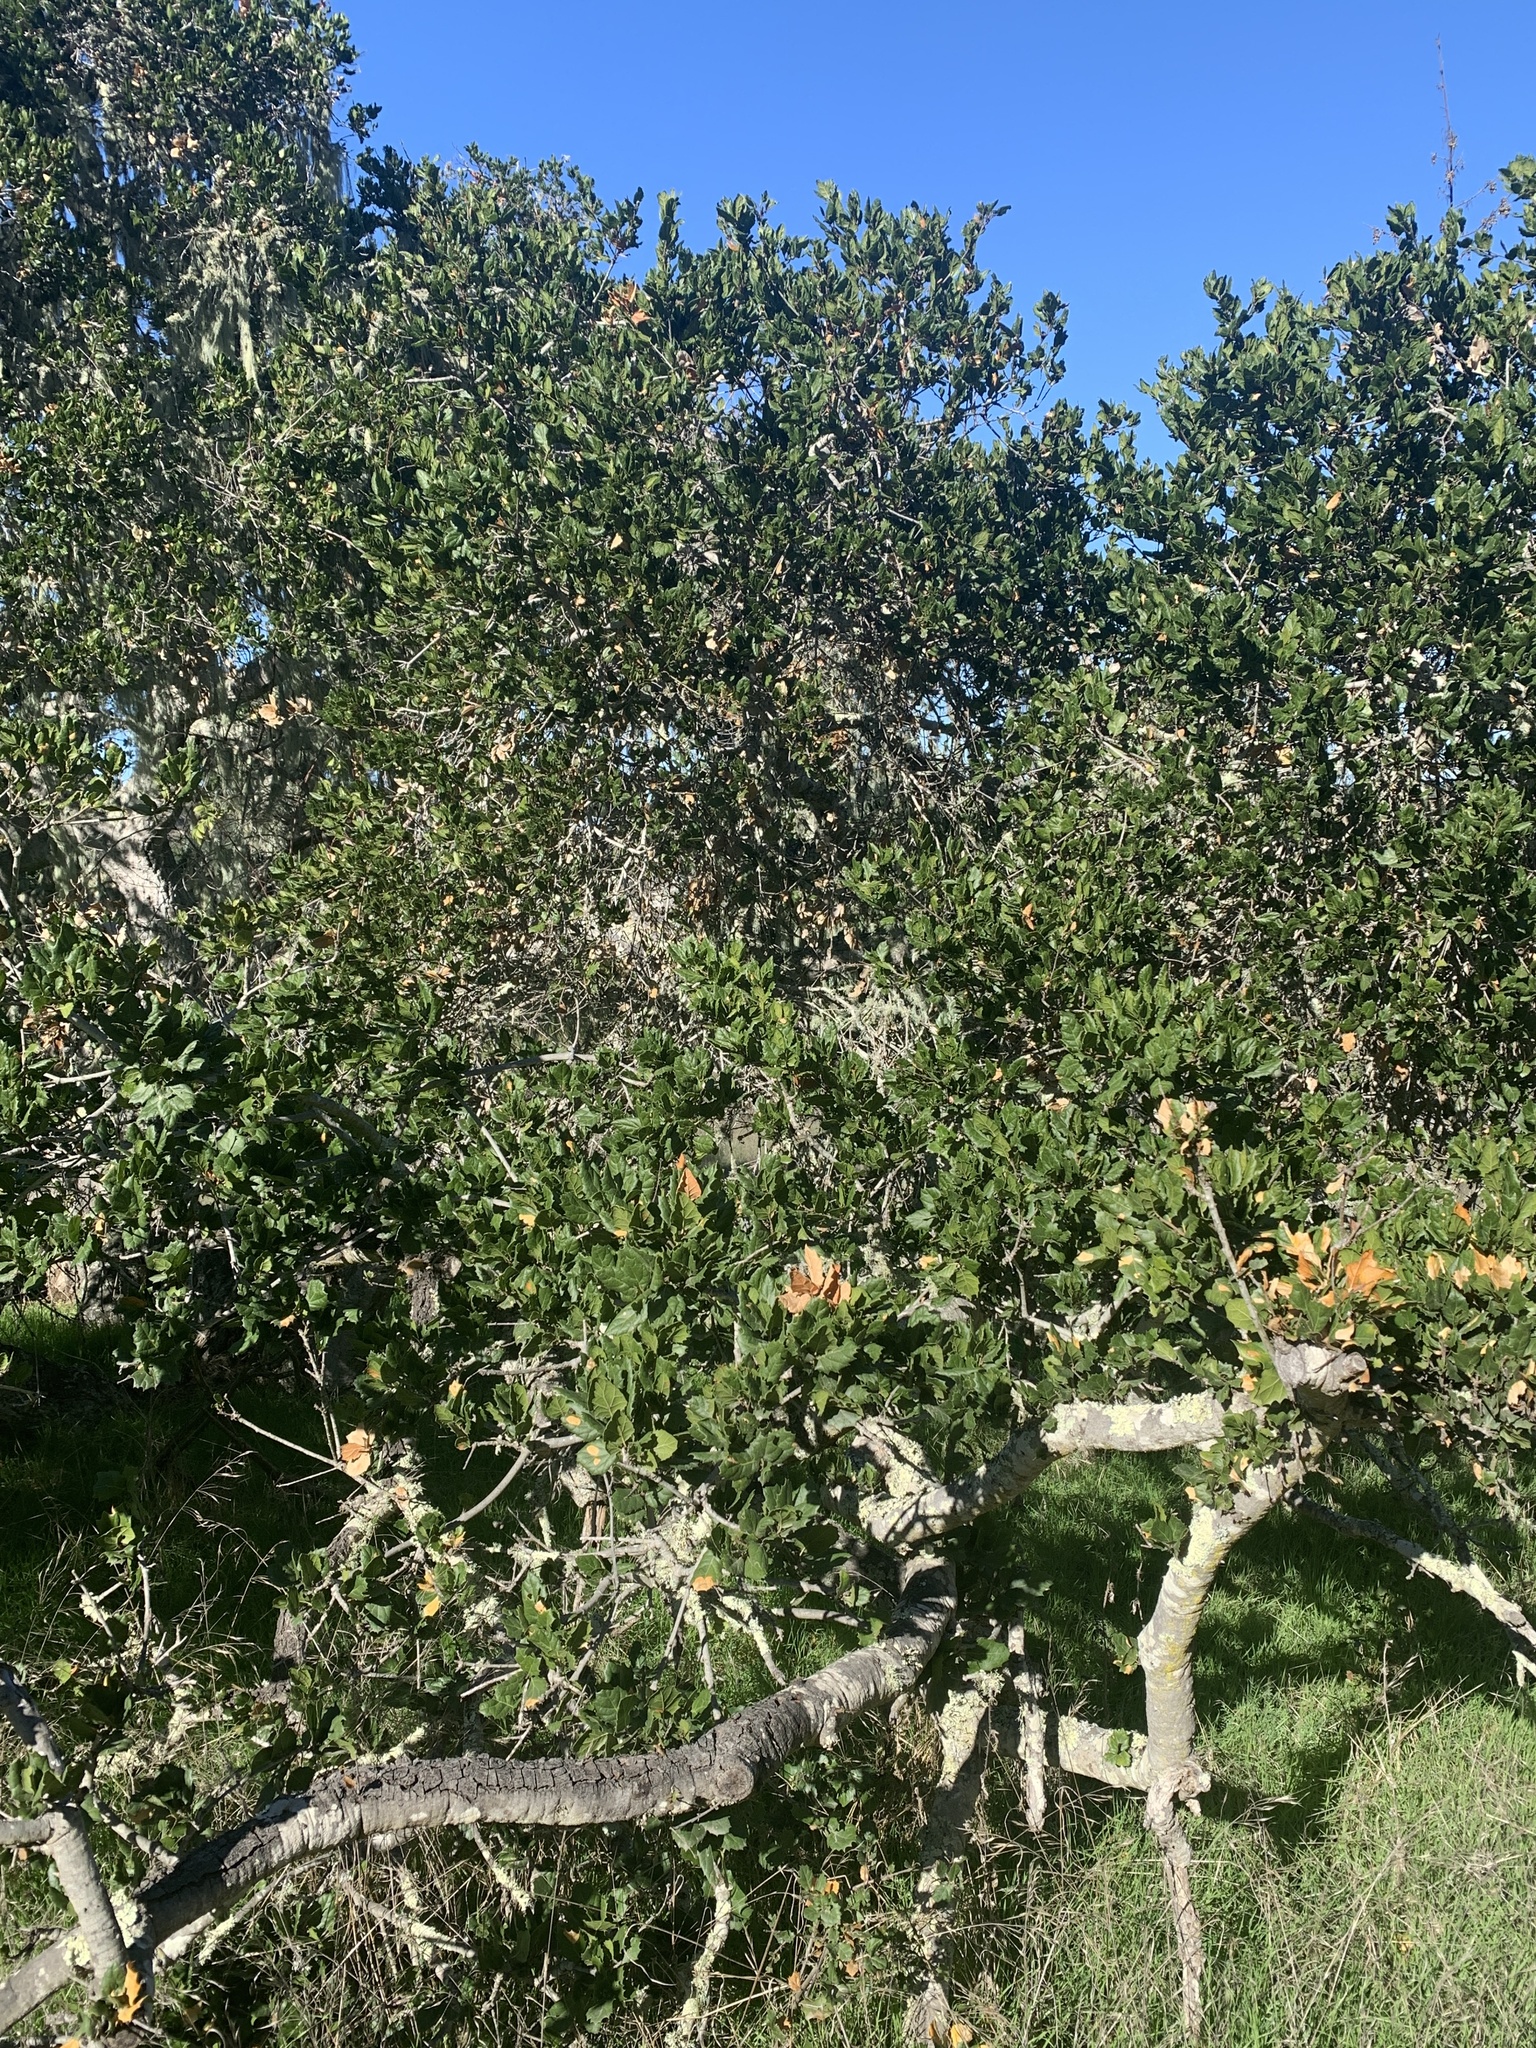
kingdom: Plantae
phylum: Tracheophyta
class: Magnoliopsida
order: Fagales
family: Fagaceae
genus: Quercus
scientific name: Quercus agrifolia
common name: California live oak
